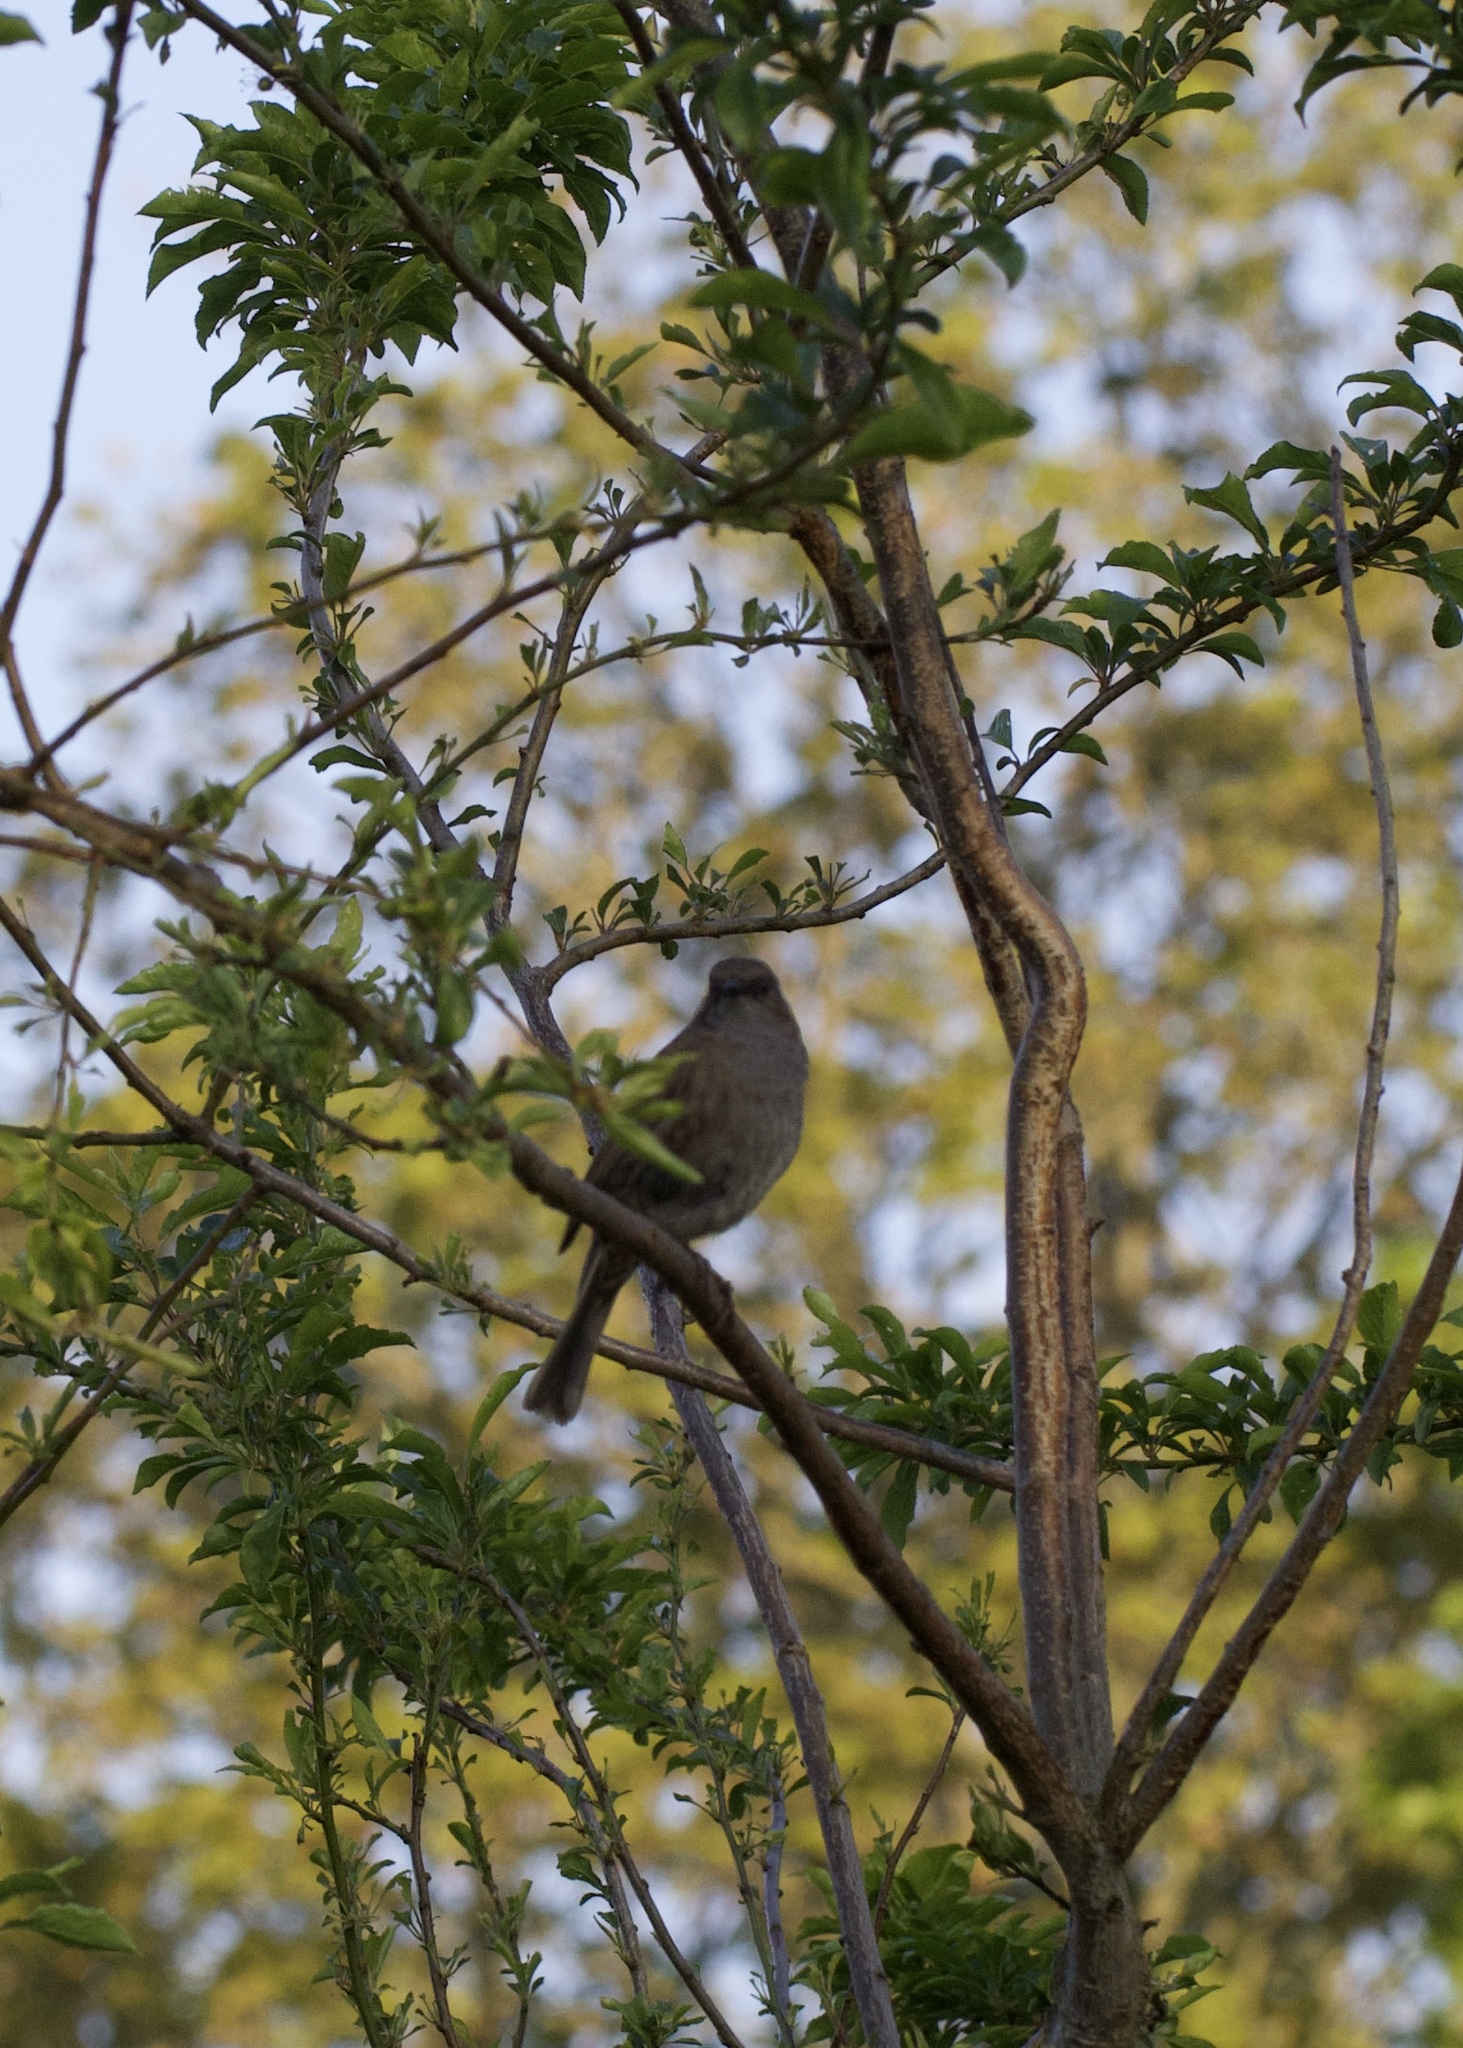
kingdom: Animalia
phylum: Chordata
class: Aves
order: Passeriformes
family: Prunellidae
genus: Prunella
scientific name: Prunella modularis
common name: Dunnock
